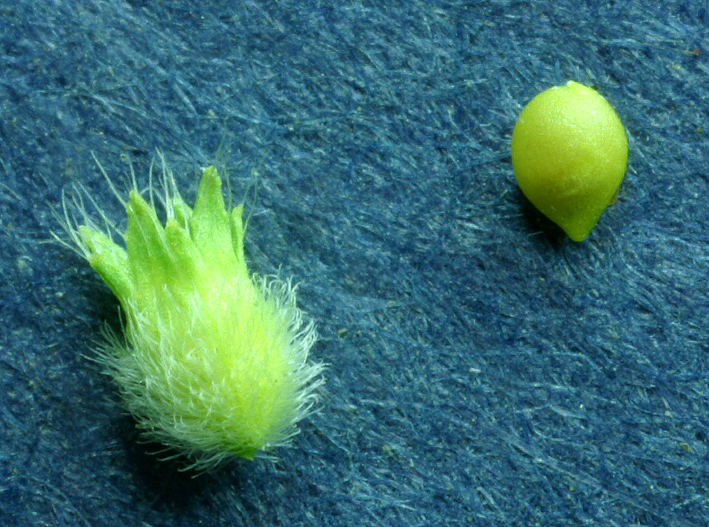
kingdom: Plantae
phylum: Tracheophyta
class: Magnoliopsida
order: Rosales
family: Rosaceae
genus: Aphanes
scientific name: Aphanes arvensis
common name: Parsley-piert
